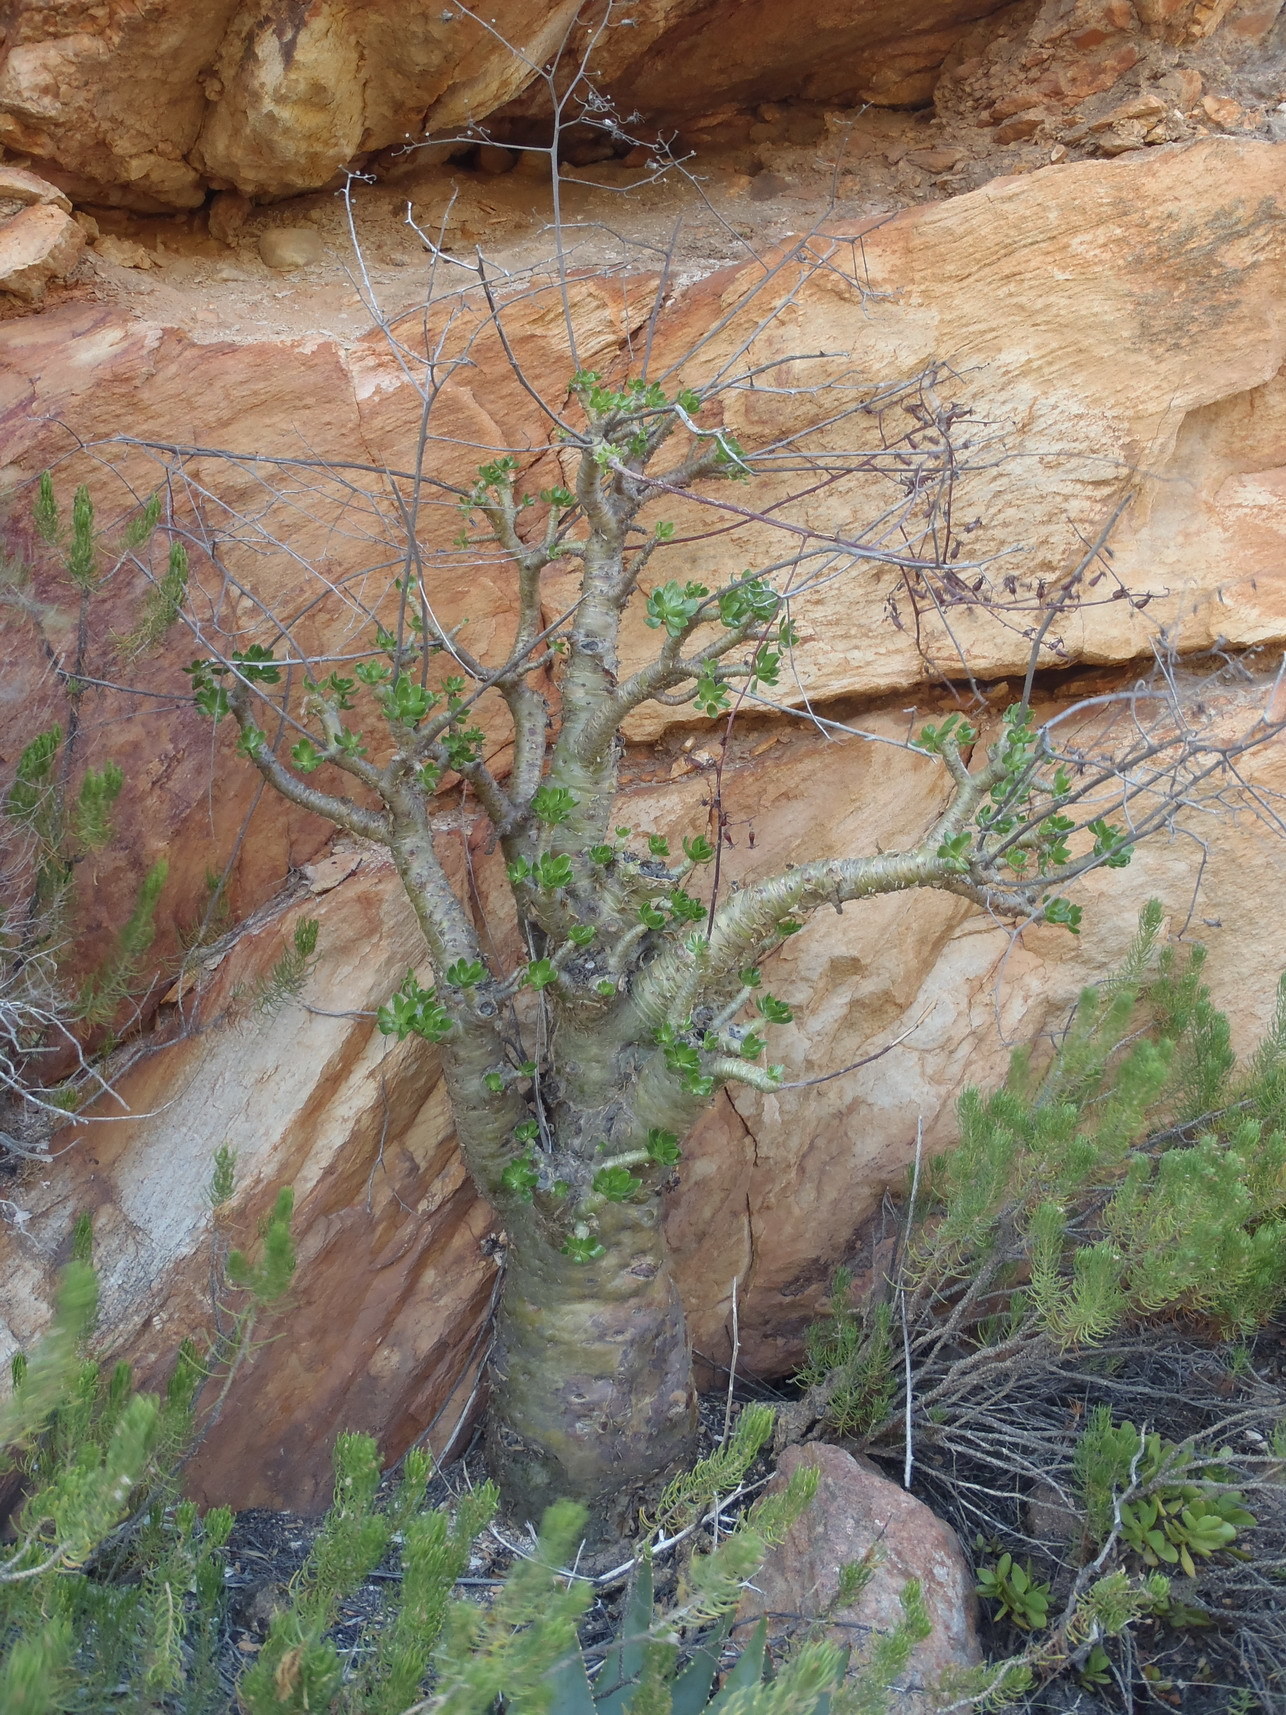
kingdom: Plantae
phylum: Tracheophyta
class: Magnoliopsida
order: Saxifragales
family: Crassulaceae
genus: Tylecodon
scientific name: Tylecodon paniculatus
